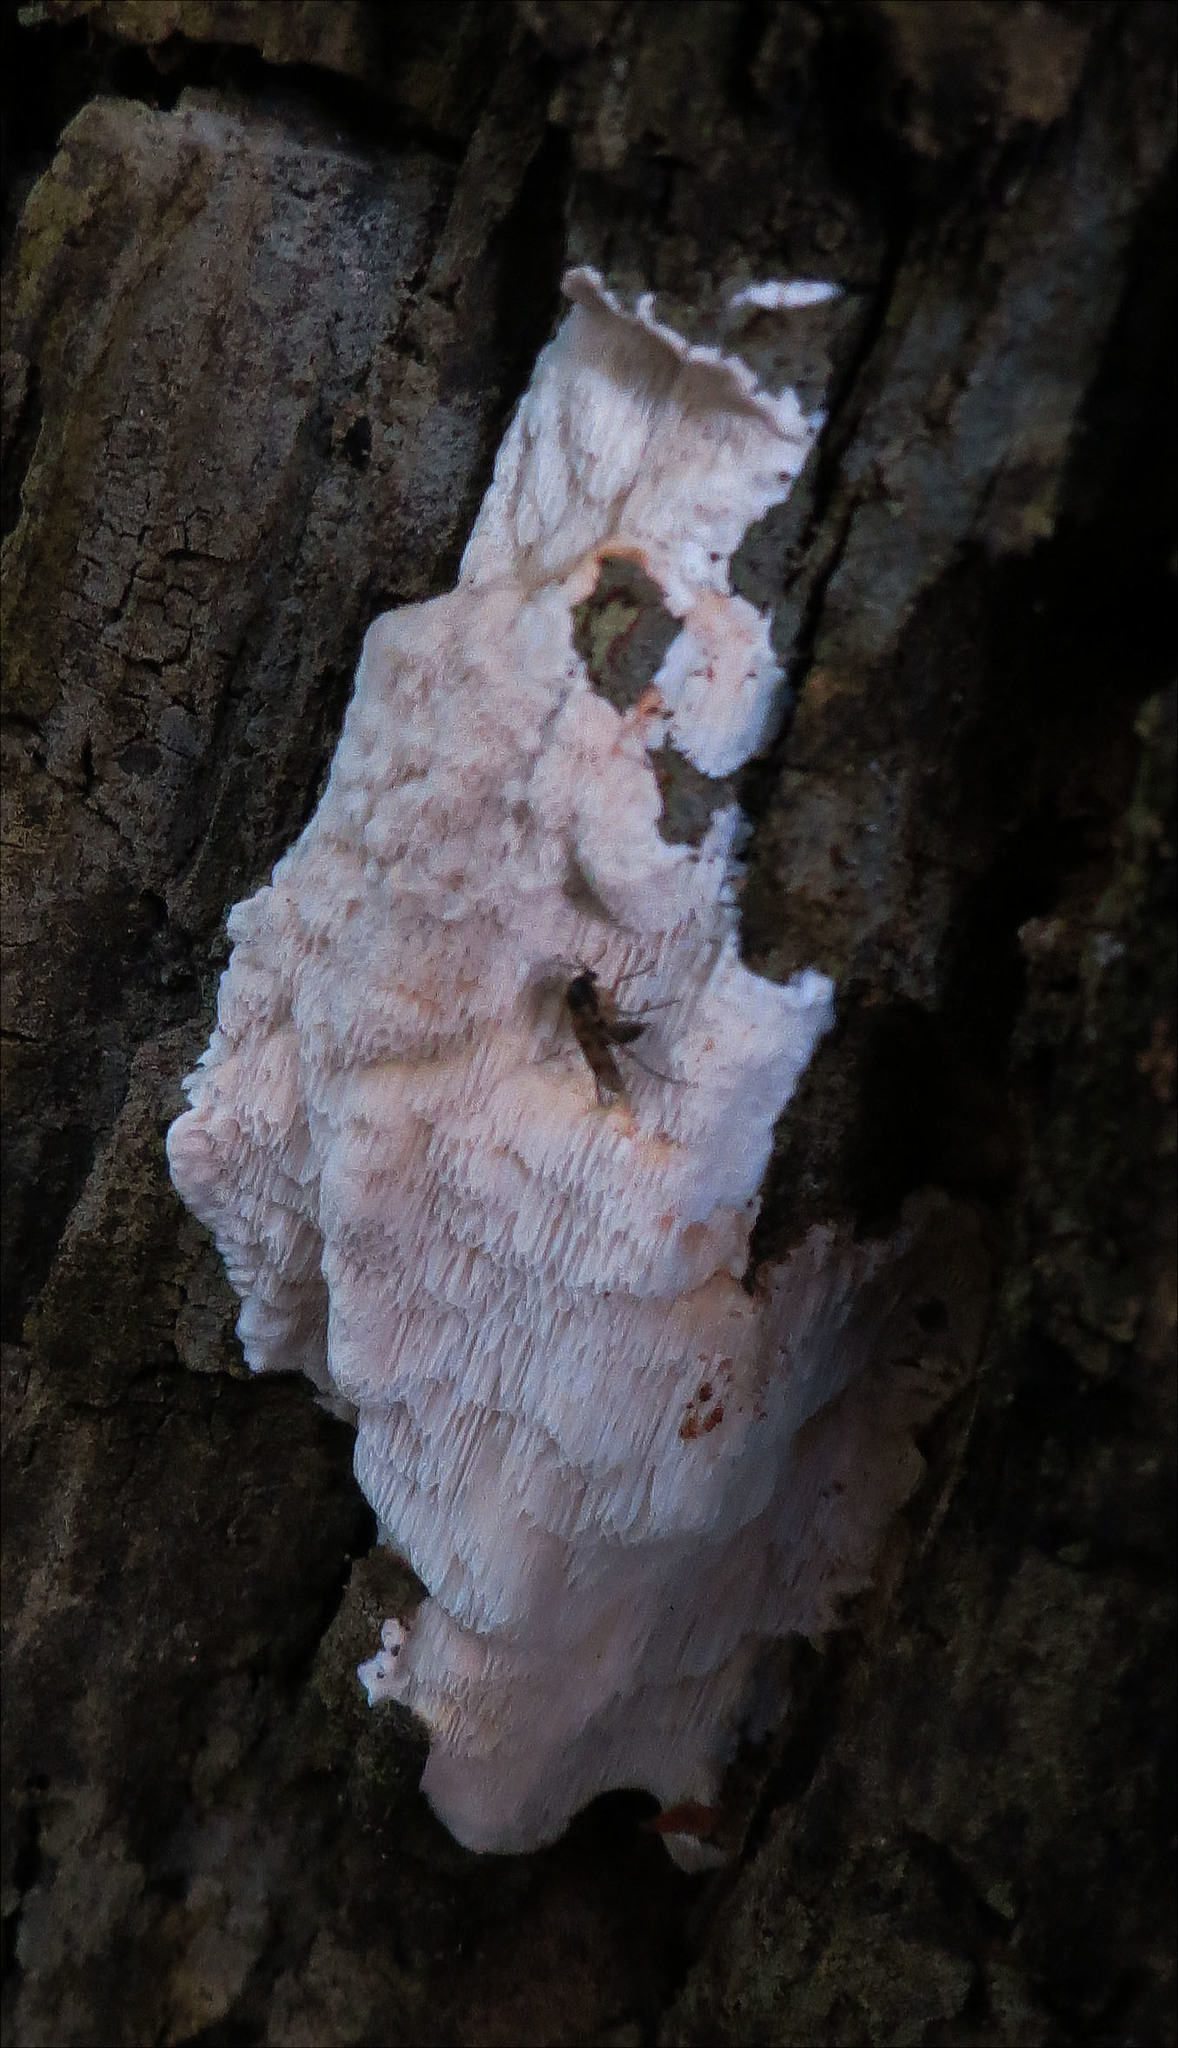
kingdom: Fungi
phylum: Basidiomycota
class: Agaricomycetes
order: Polyporales
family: Polyporaceae
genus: Rhodonia
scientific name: Rhodonia placenta
